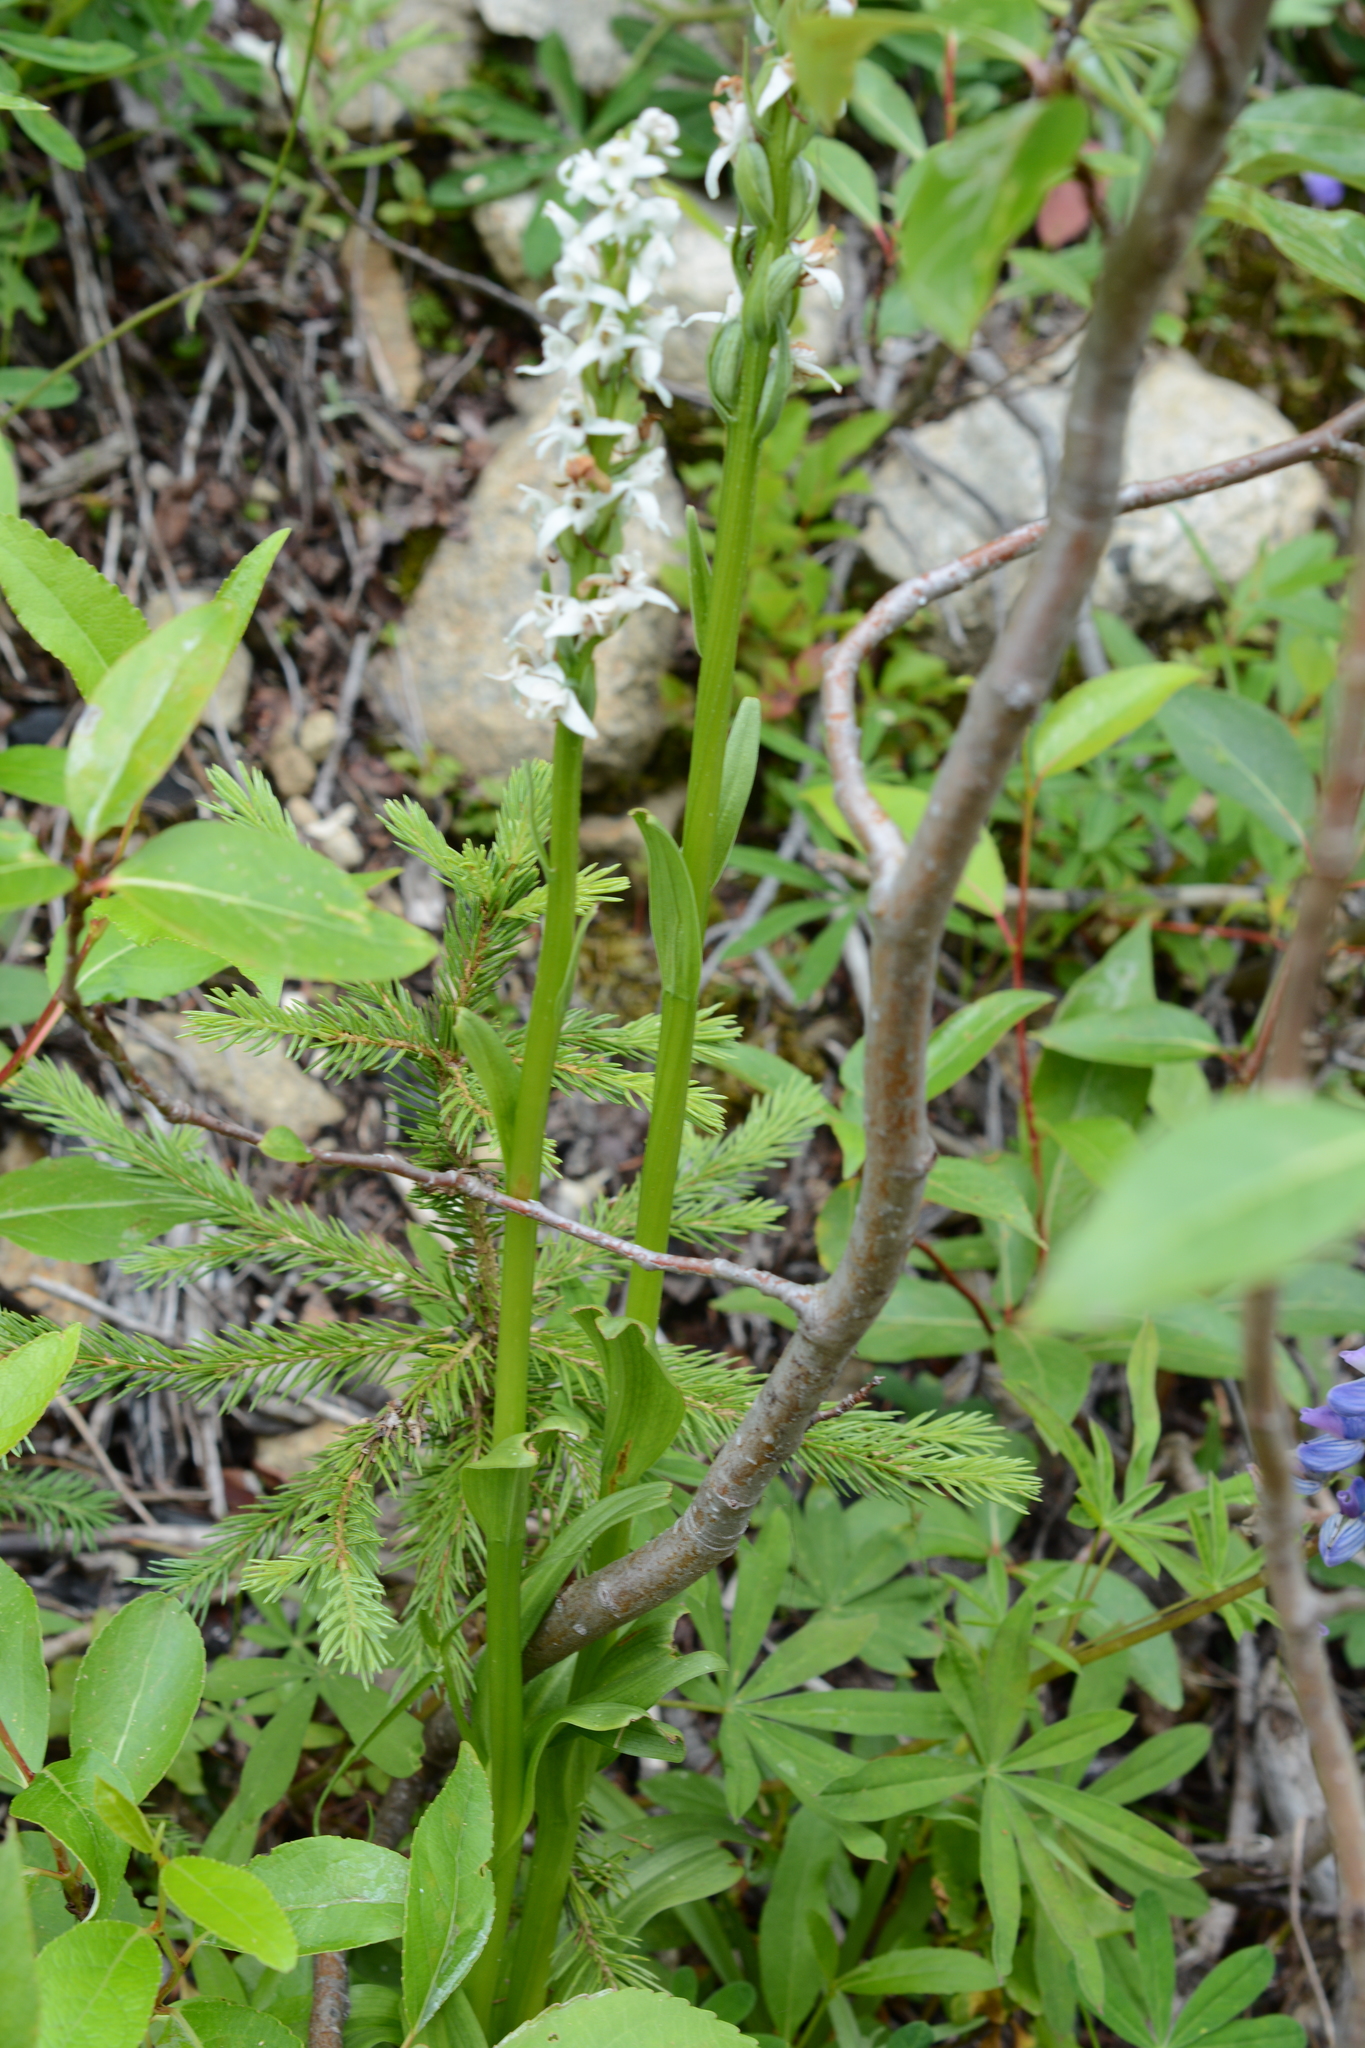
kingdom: Plantae
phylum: Tracheophyta
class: Liliopsida
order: Asparagales
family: Orchidaceae
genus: Platanthera
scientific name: Platanthera dilatata
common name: Bog candles
